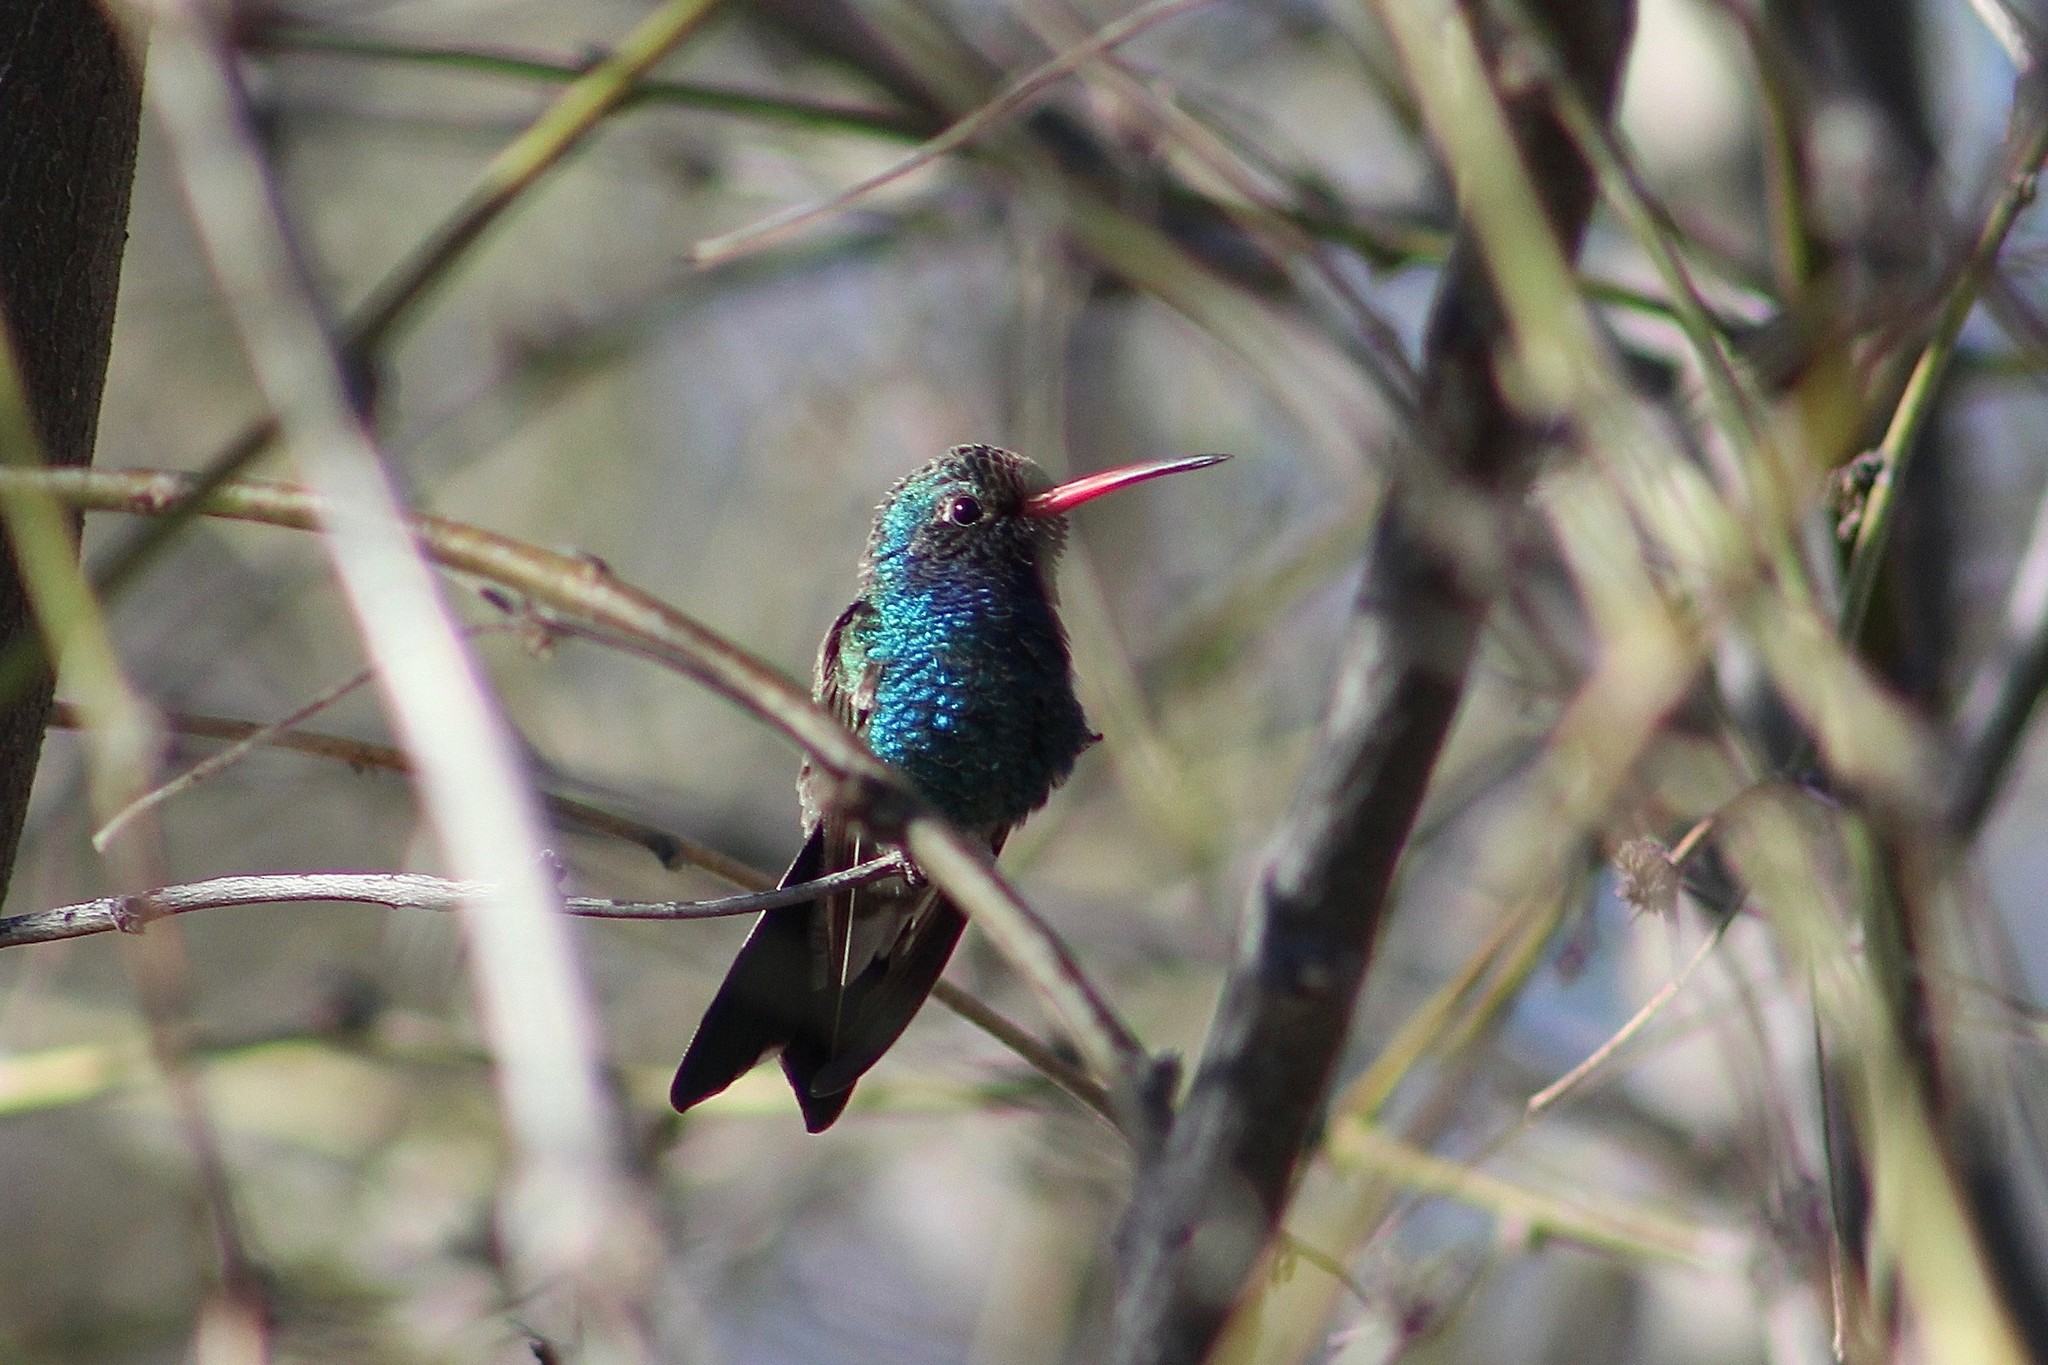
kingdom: Animalia
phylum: Chordata
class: Aves
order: Apodiformes
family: Trochilidae
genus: Cynanthus
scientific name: Cynanthus latirostris
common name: Broad-billed hummingbird
